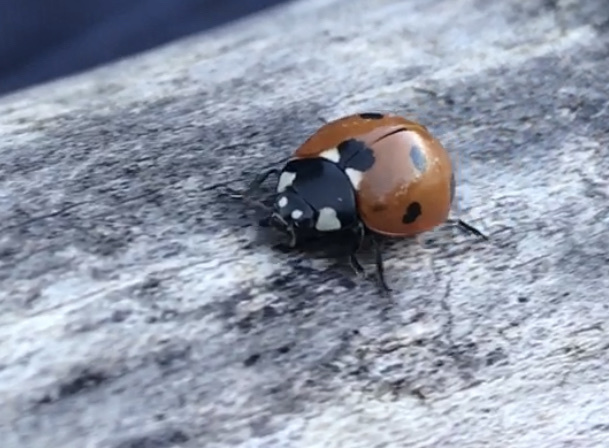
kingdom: Animalia
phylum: Arthropoda
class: Insecta
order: Coleoptera
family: Coccinellidae
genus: Coccinella
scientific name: Coccinella septempunctata
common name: Sevenspotted lady beetle
